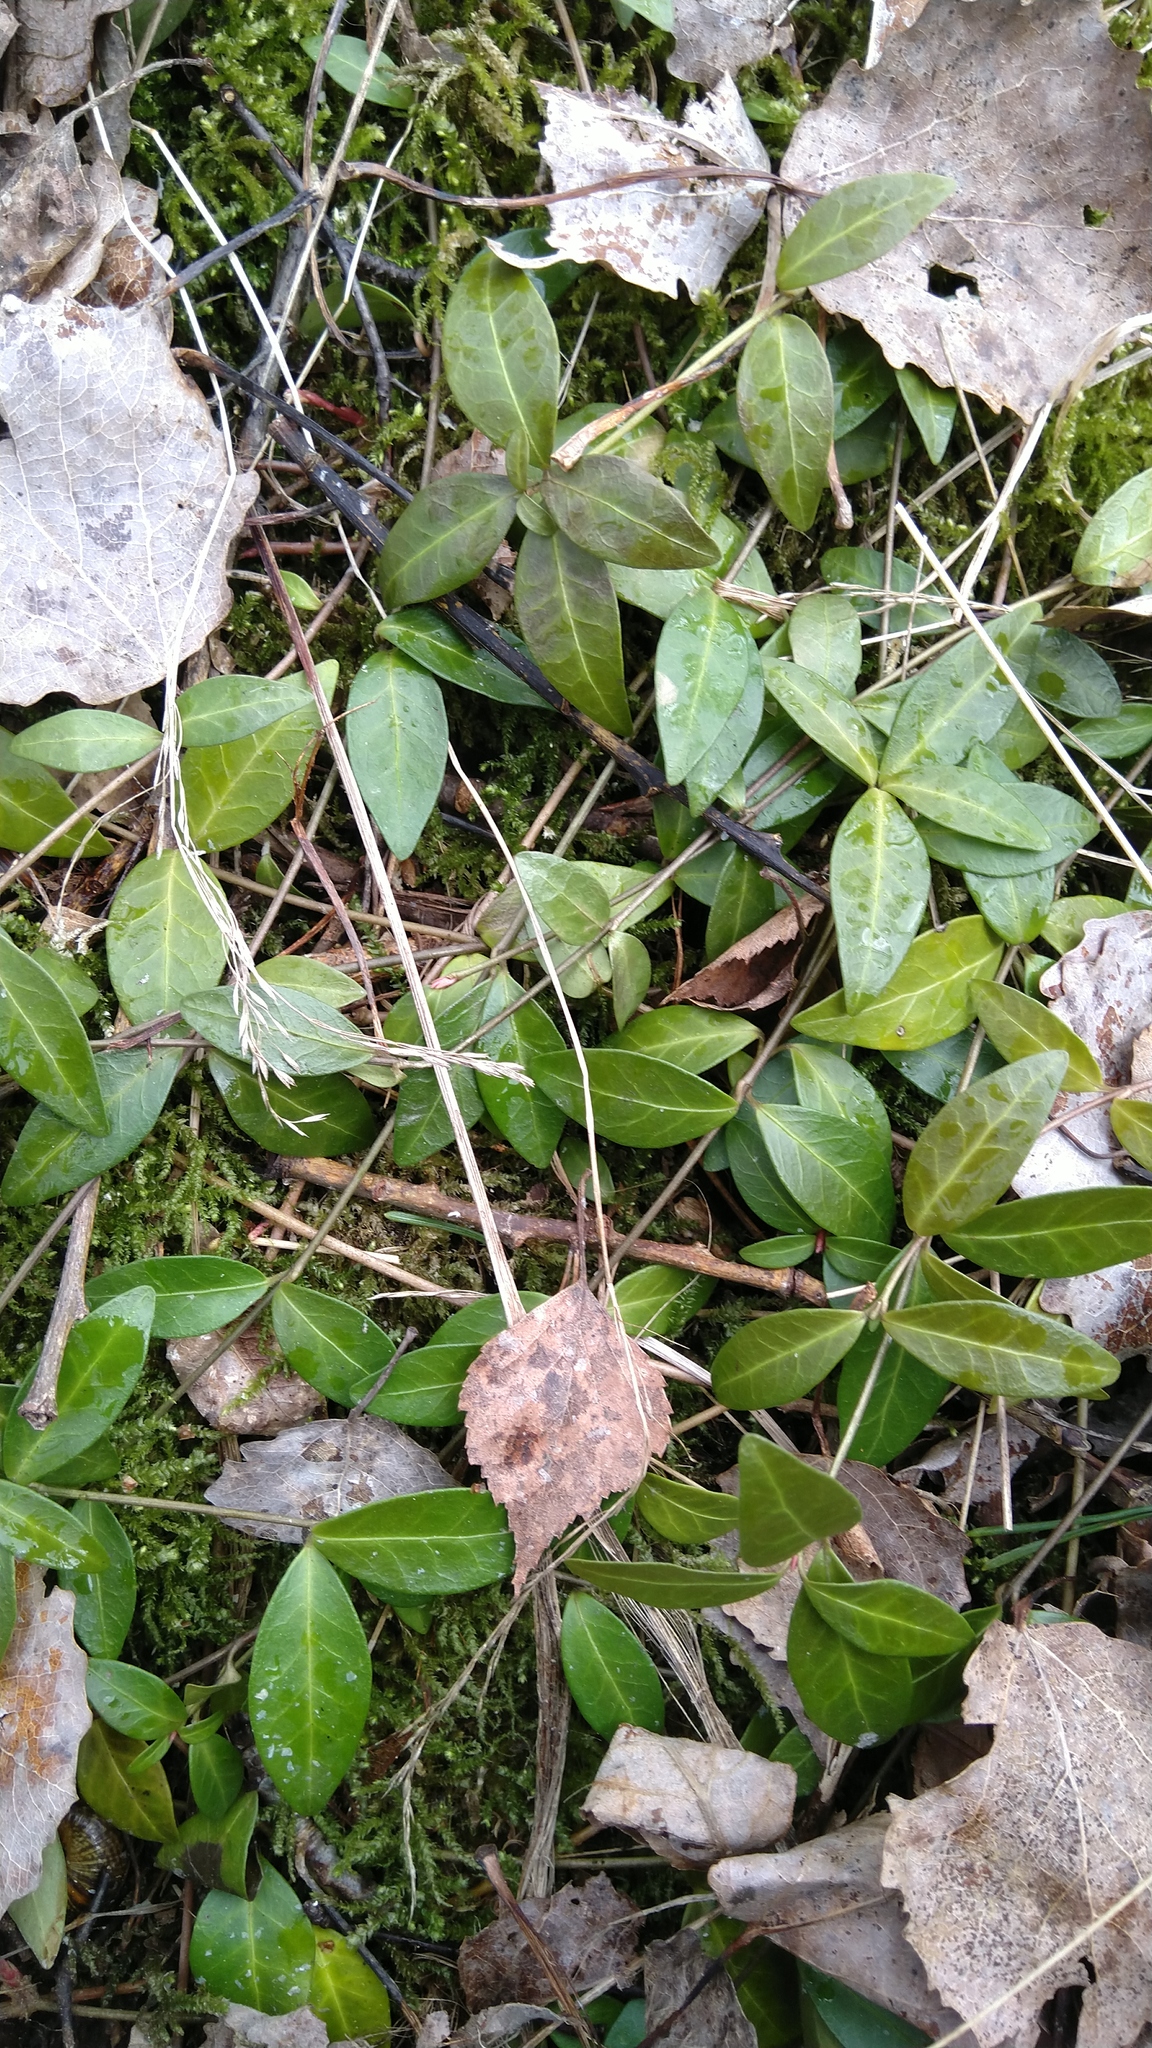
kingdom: Plantae
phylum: Tracheophyta
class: Magnoliopsida
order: Gentianales
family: Apocynaceae
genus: Vinca
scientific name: Vinca minor
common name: Lesser periwinkle
